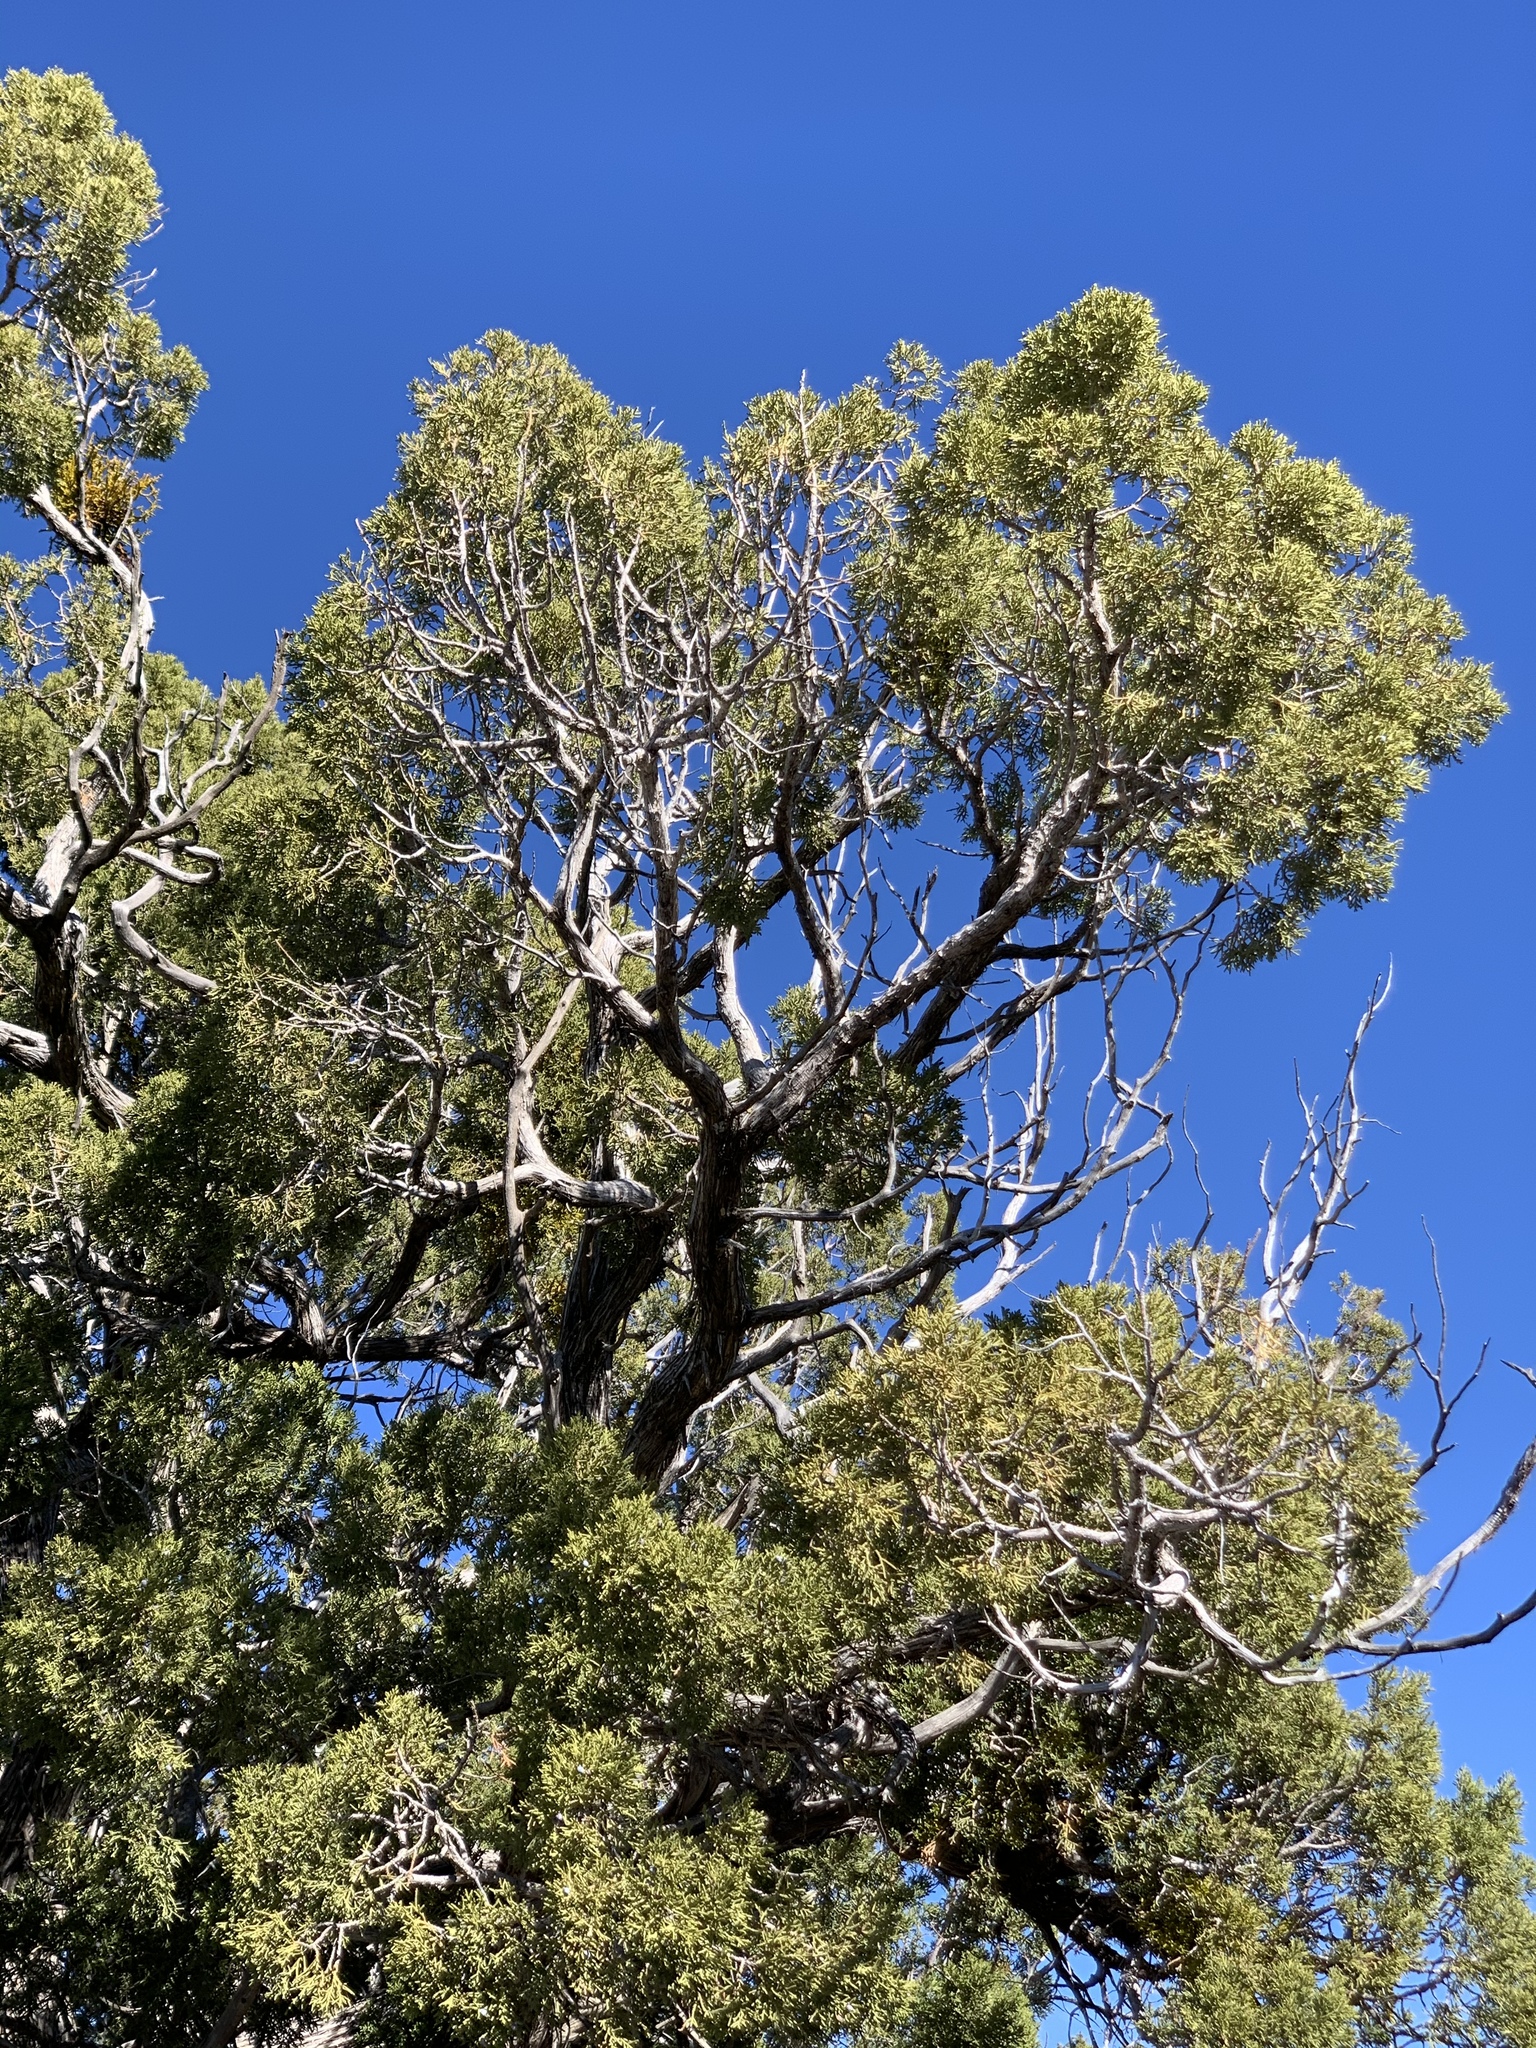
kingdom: Plantae
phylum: Tracheophyta
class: Pinopsida
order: Pinales
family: Cupressaceae
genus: Juniperus
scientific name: Juniperus monosperma
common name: One-seed juniper
